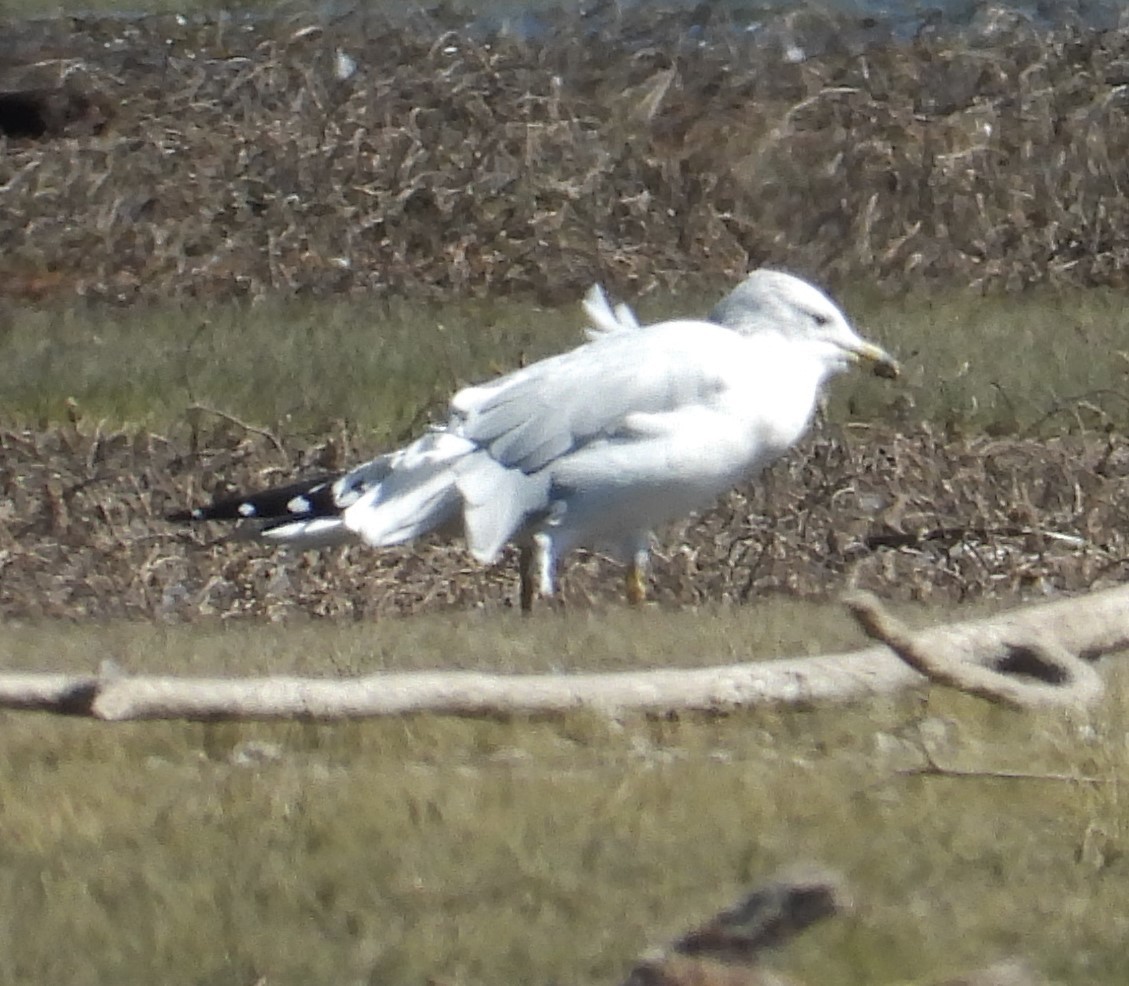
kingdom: Animalia
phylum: Chordata
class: Aves
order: Charadriiformes
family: Laridae
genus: Larus
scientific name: Larus delawarensis
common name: Ring-billed gull
